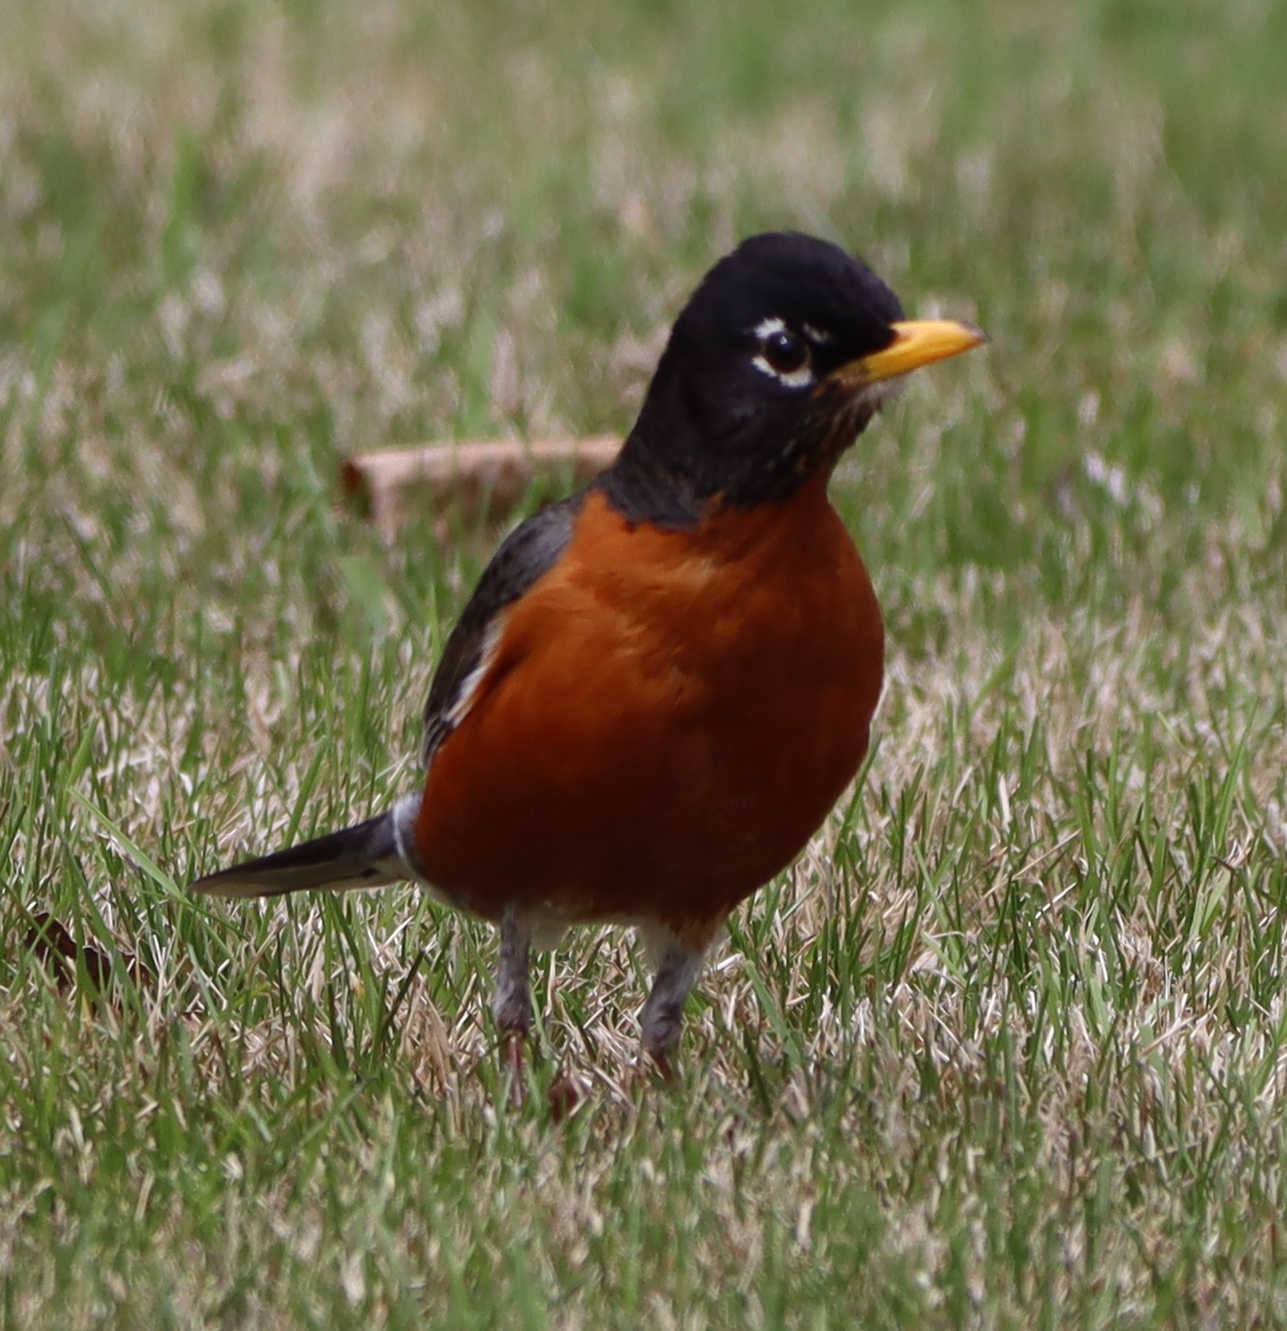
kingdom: Animalia
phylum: Chordata
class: Aves
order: Passeriformes
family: Turdidae
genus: Turdus
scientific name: Turdus migratorius
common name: American robin
